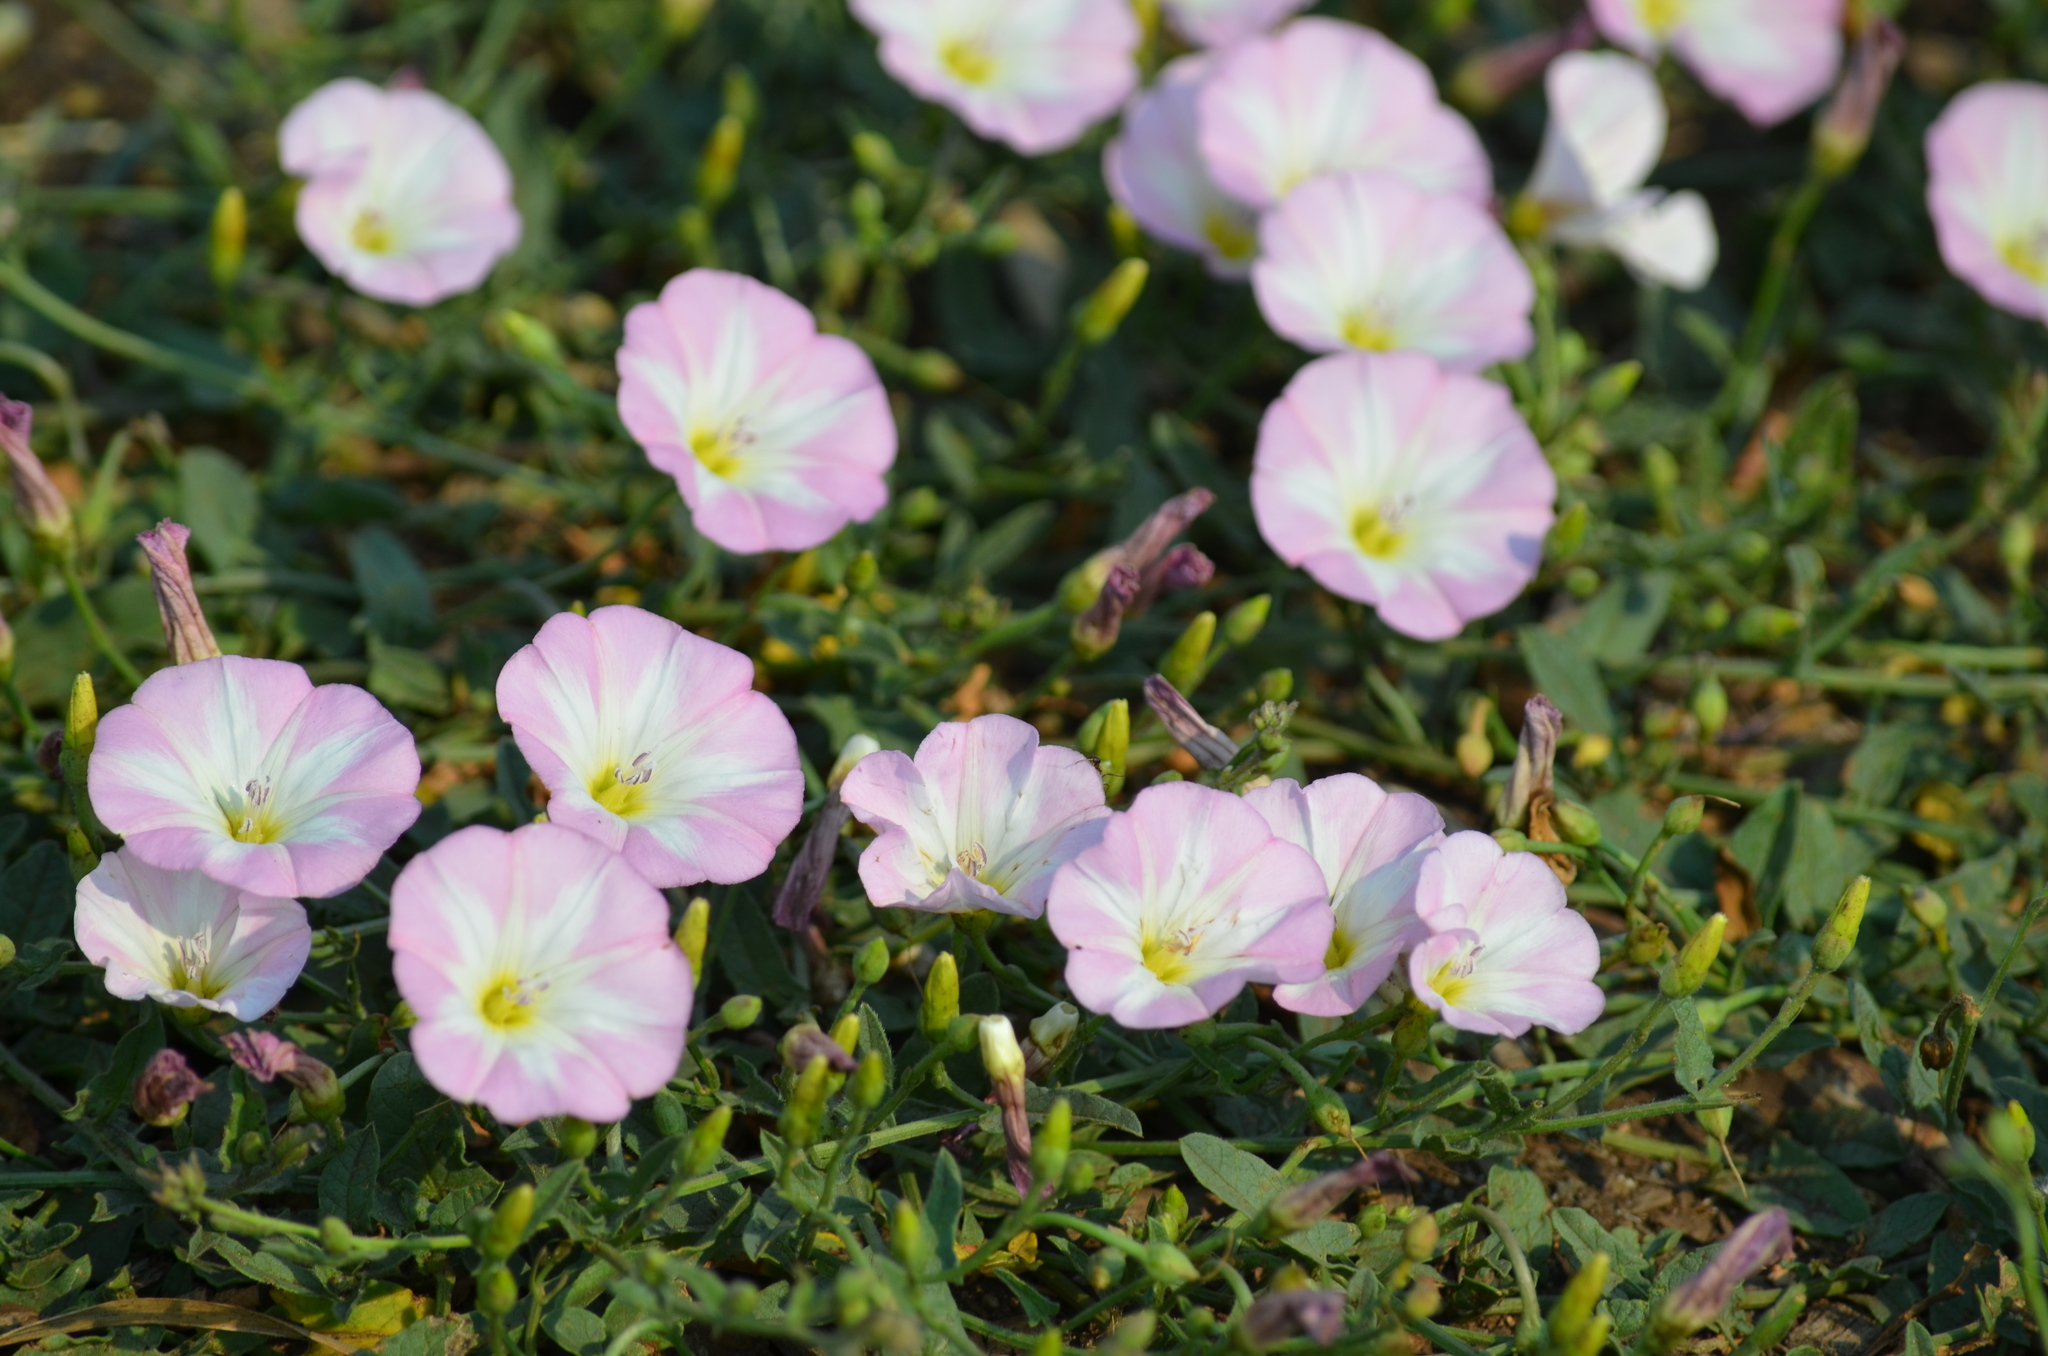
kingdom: Plantae
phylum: Tracheophyta
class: Magnoliopsida
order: Solanales
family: Convolvulaceae
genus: Convolvulus
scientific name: Convolvulus arvensis
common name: Field bindweed
